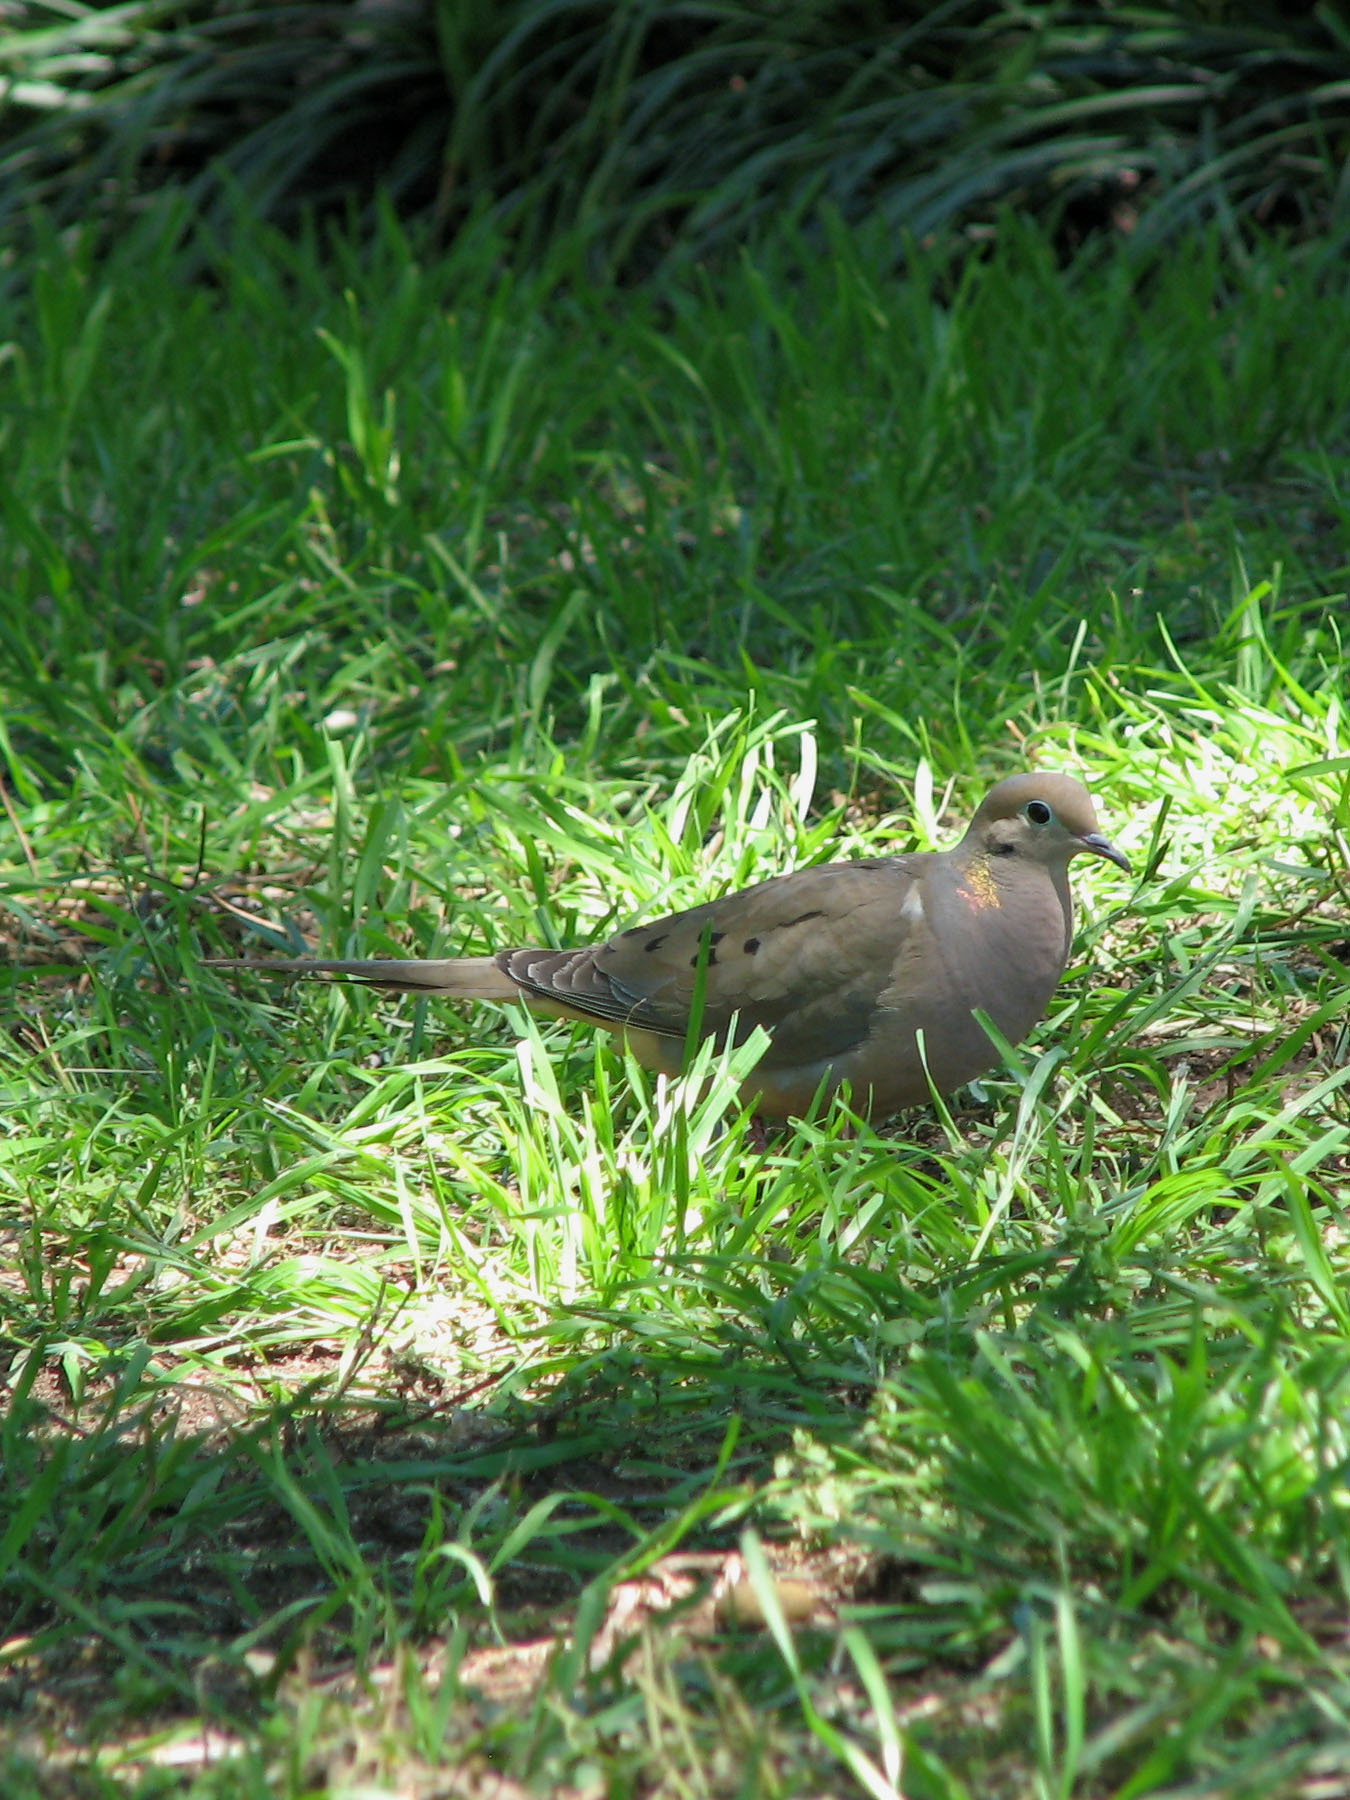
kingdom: Animalia
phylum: Chordata
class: Aves
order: Columbiformes
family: Columbidae
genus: Zenaida
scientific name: Zenaida macroura
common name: Mourning dove
